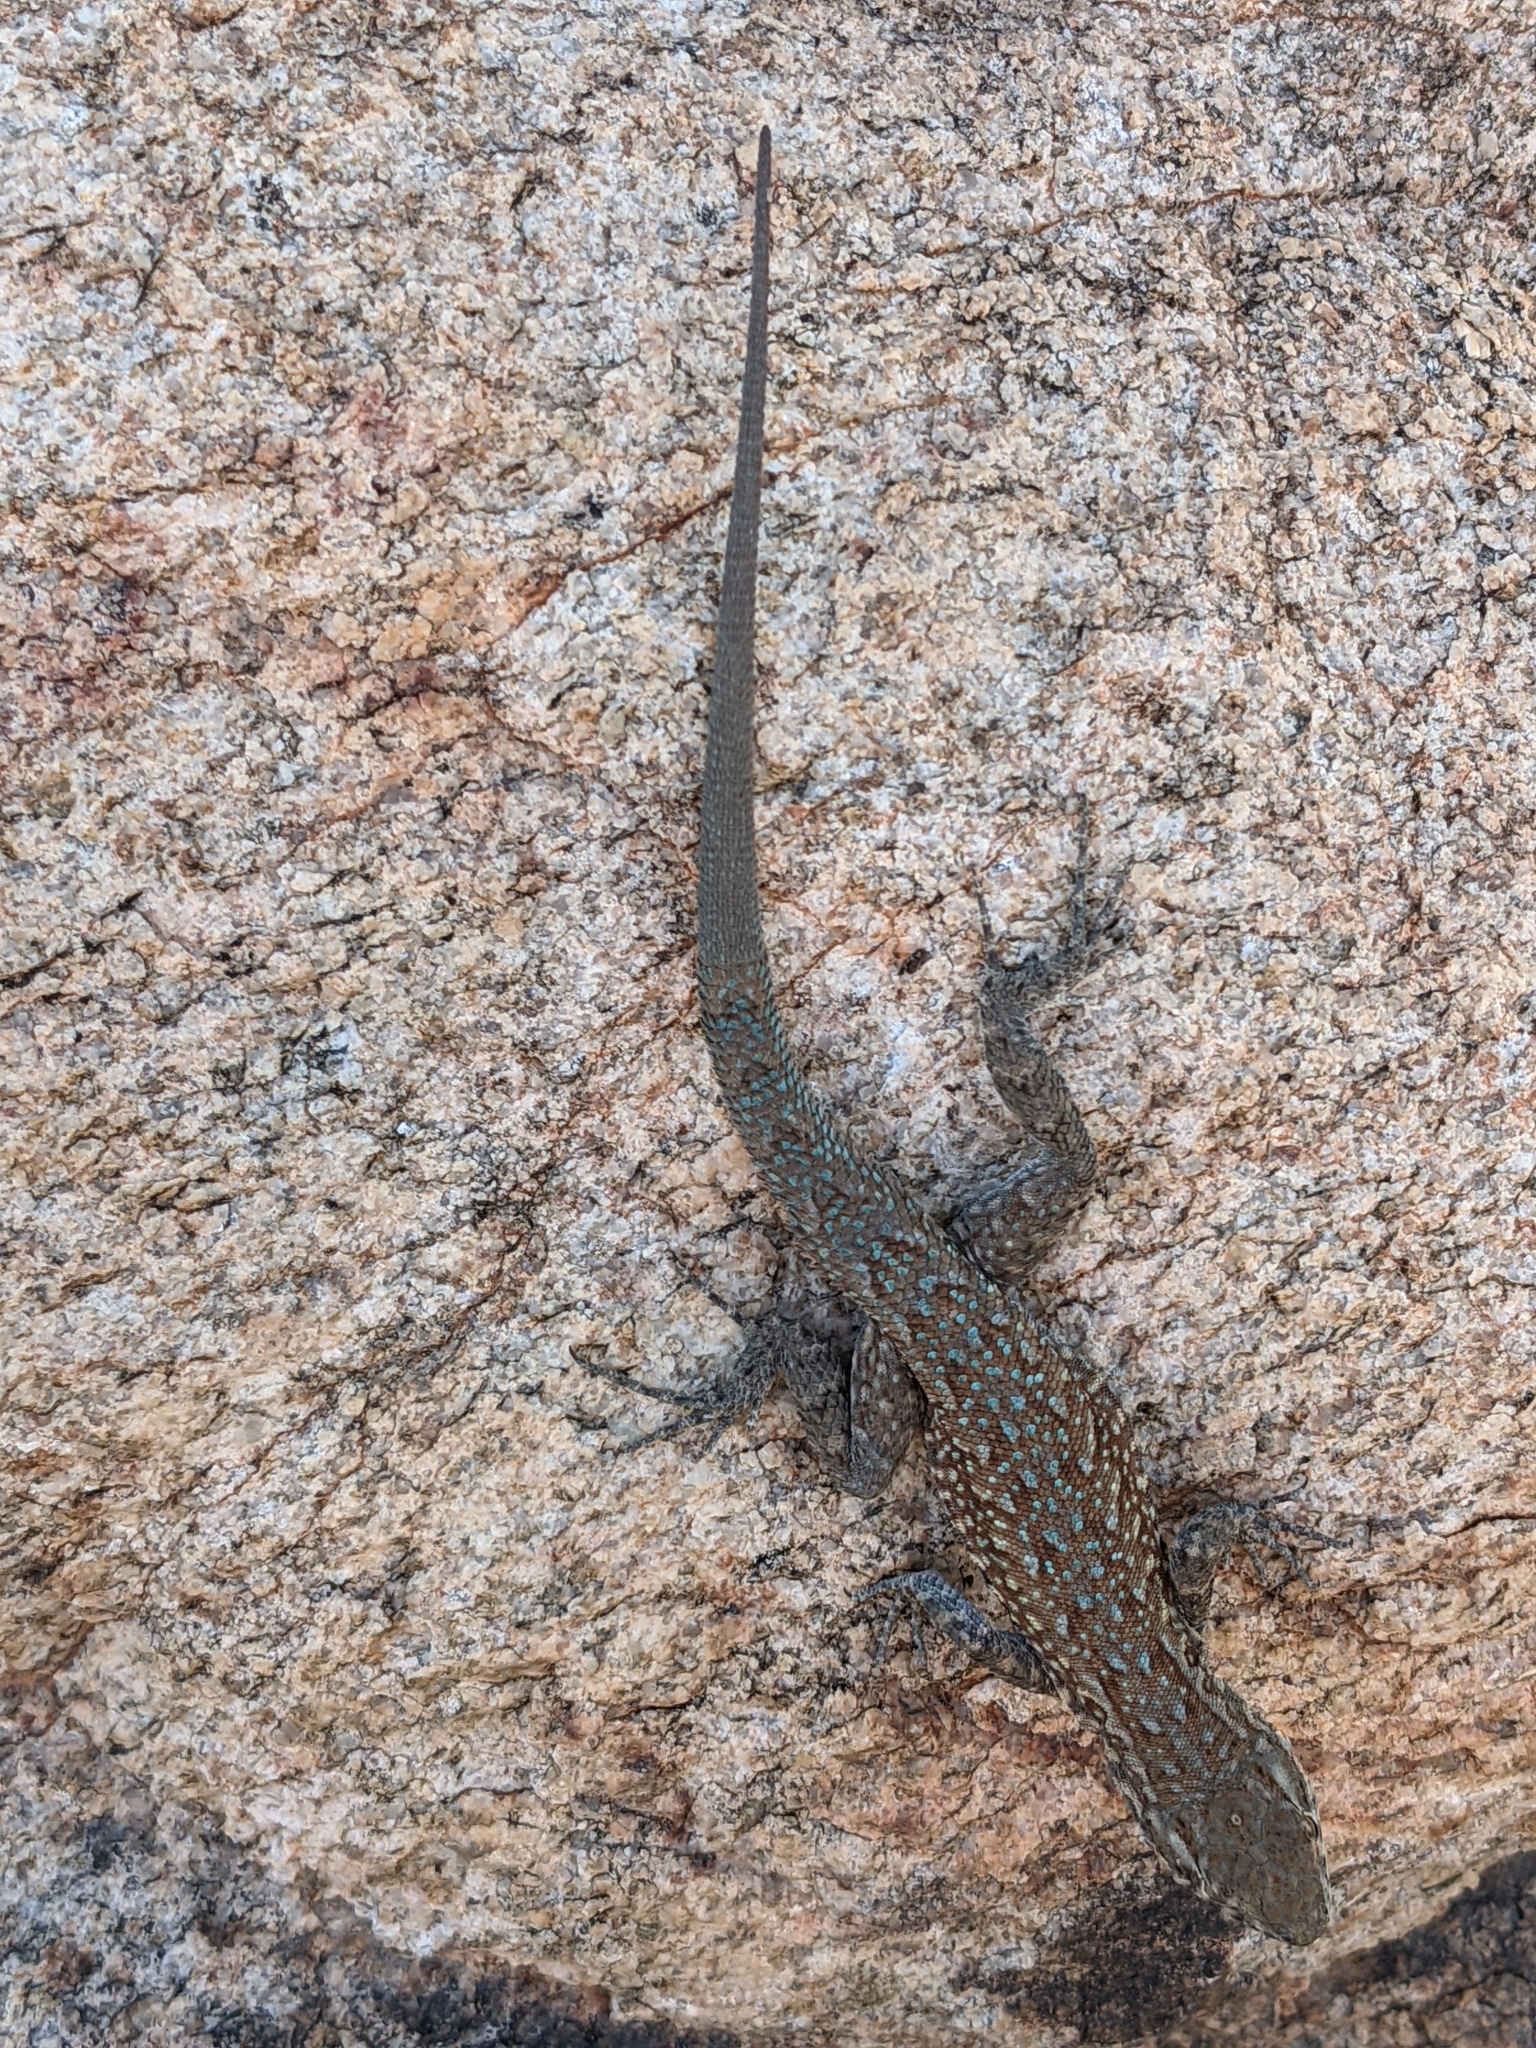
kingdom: Animalia
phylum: Chordata
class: Squamata
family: Phrynosomatidae
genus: Uta
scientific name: Uta stansburiana
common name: Side-blotched lizard
